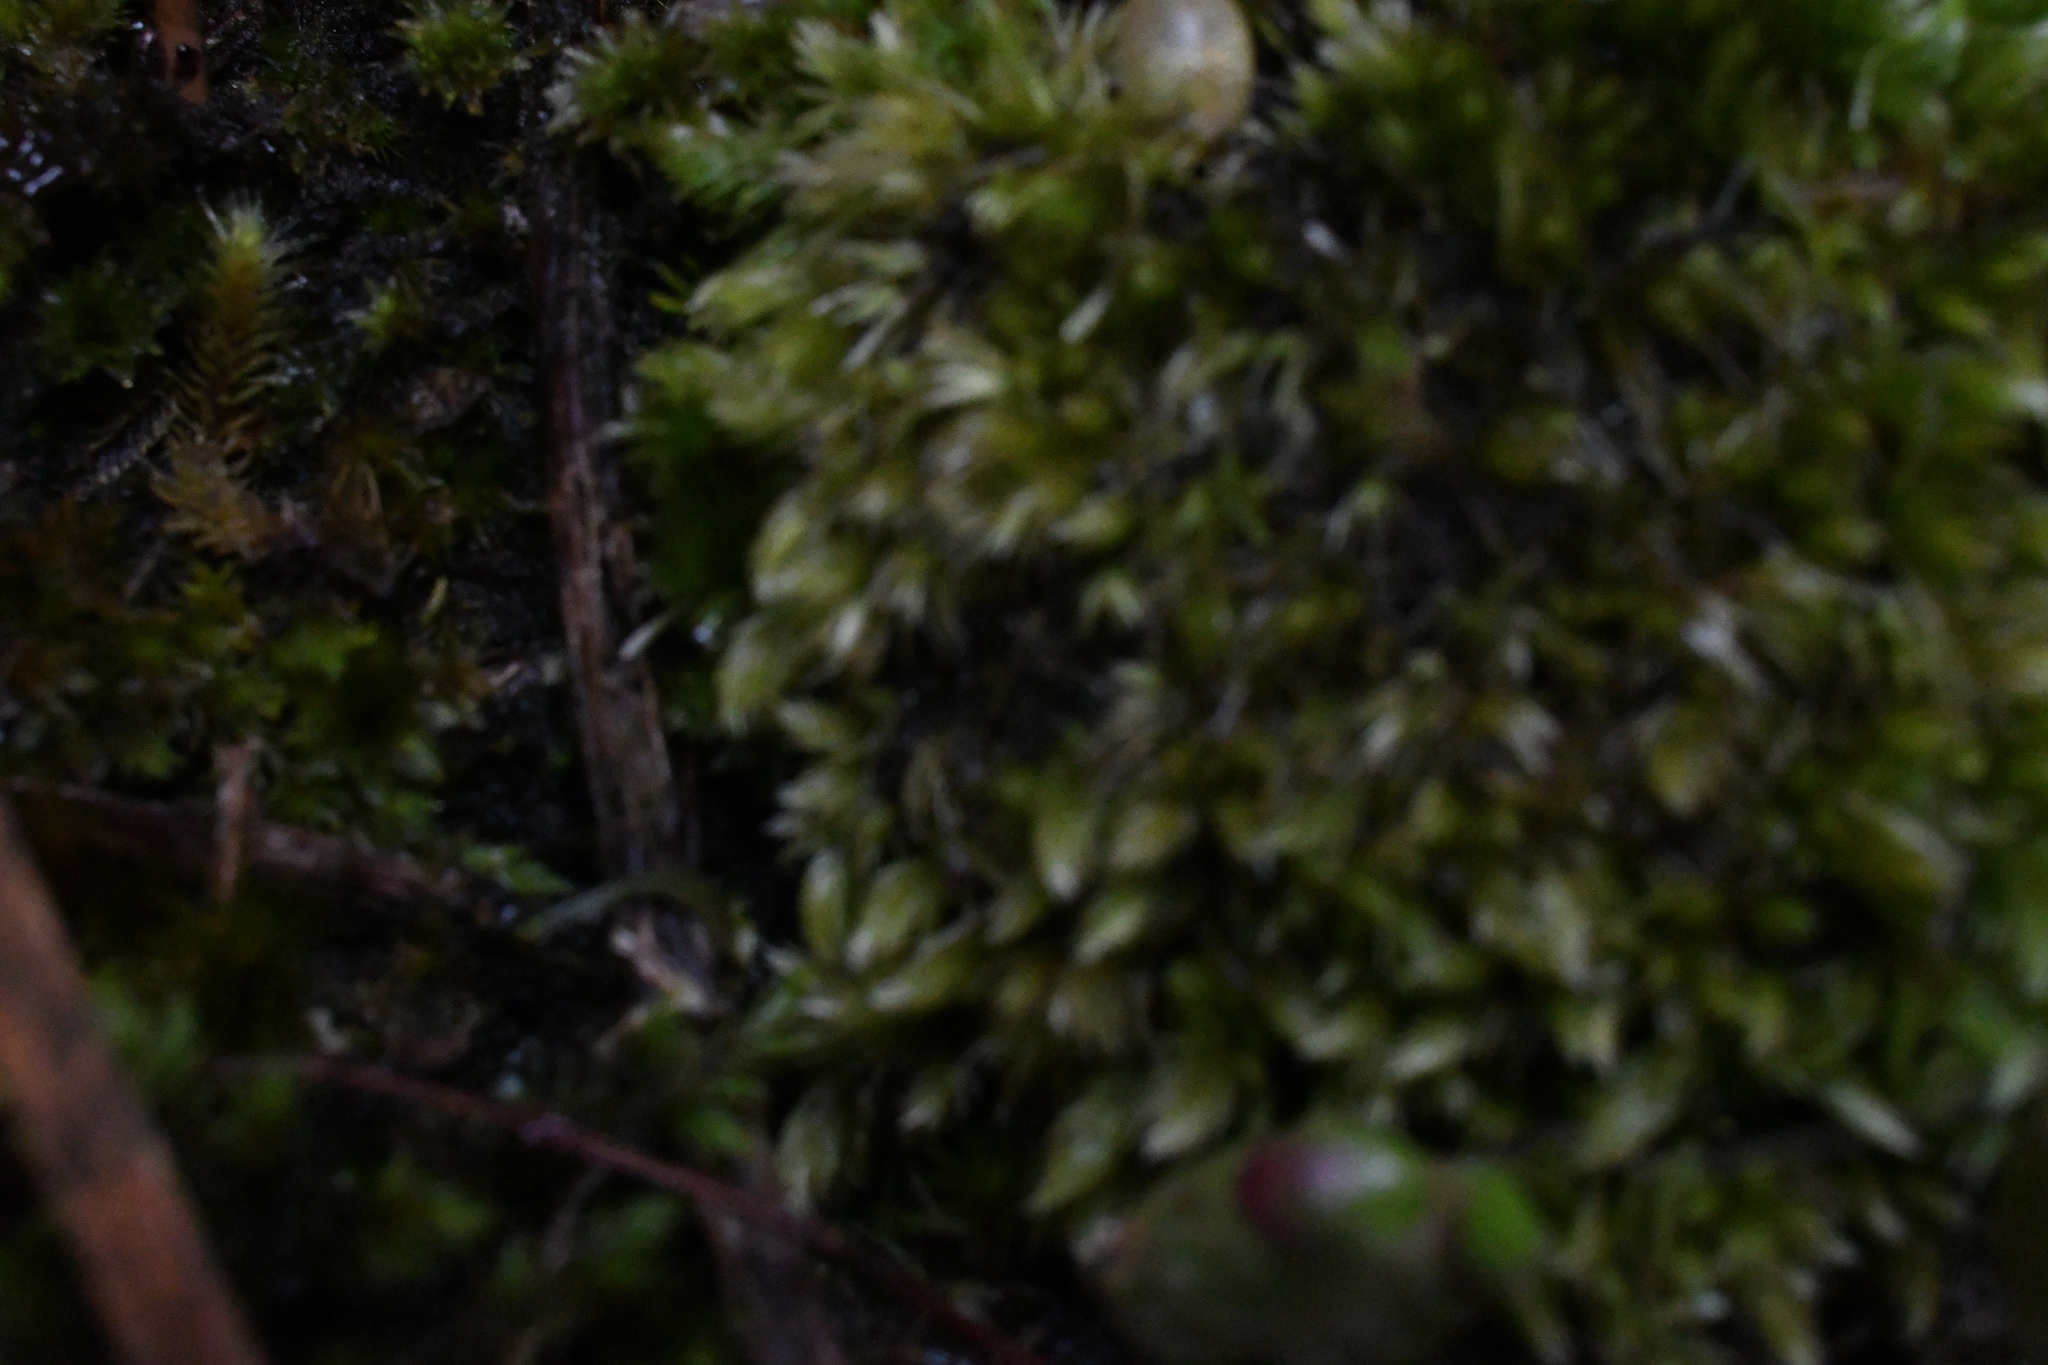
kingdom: Plantae
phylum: Bryophyta
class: Bryopsida
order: Dicranales
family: Leucobryaceae
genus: Leucobryum
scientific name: Leucobryum javense
